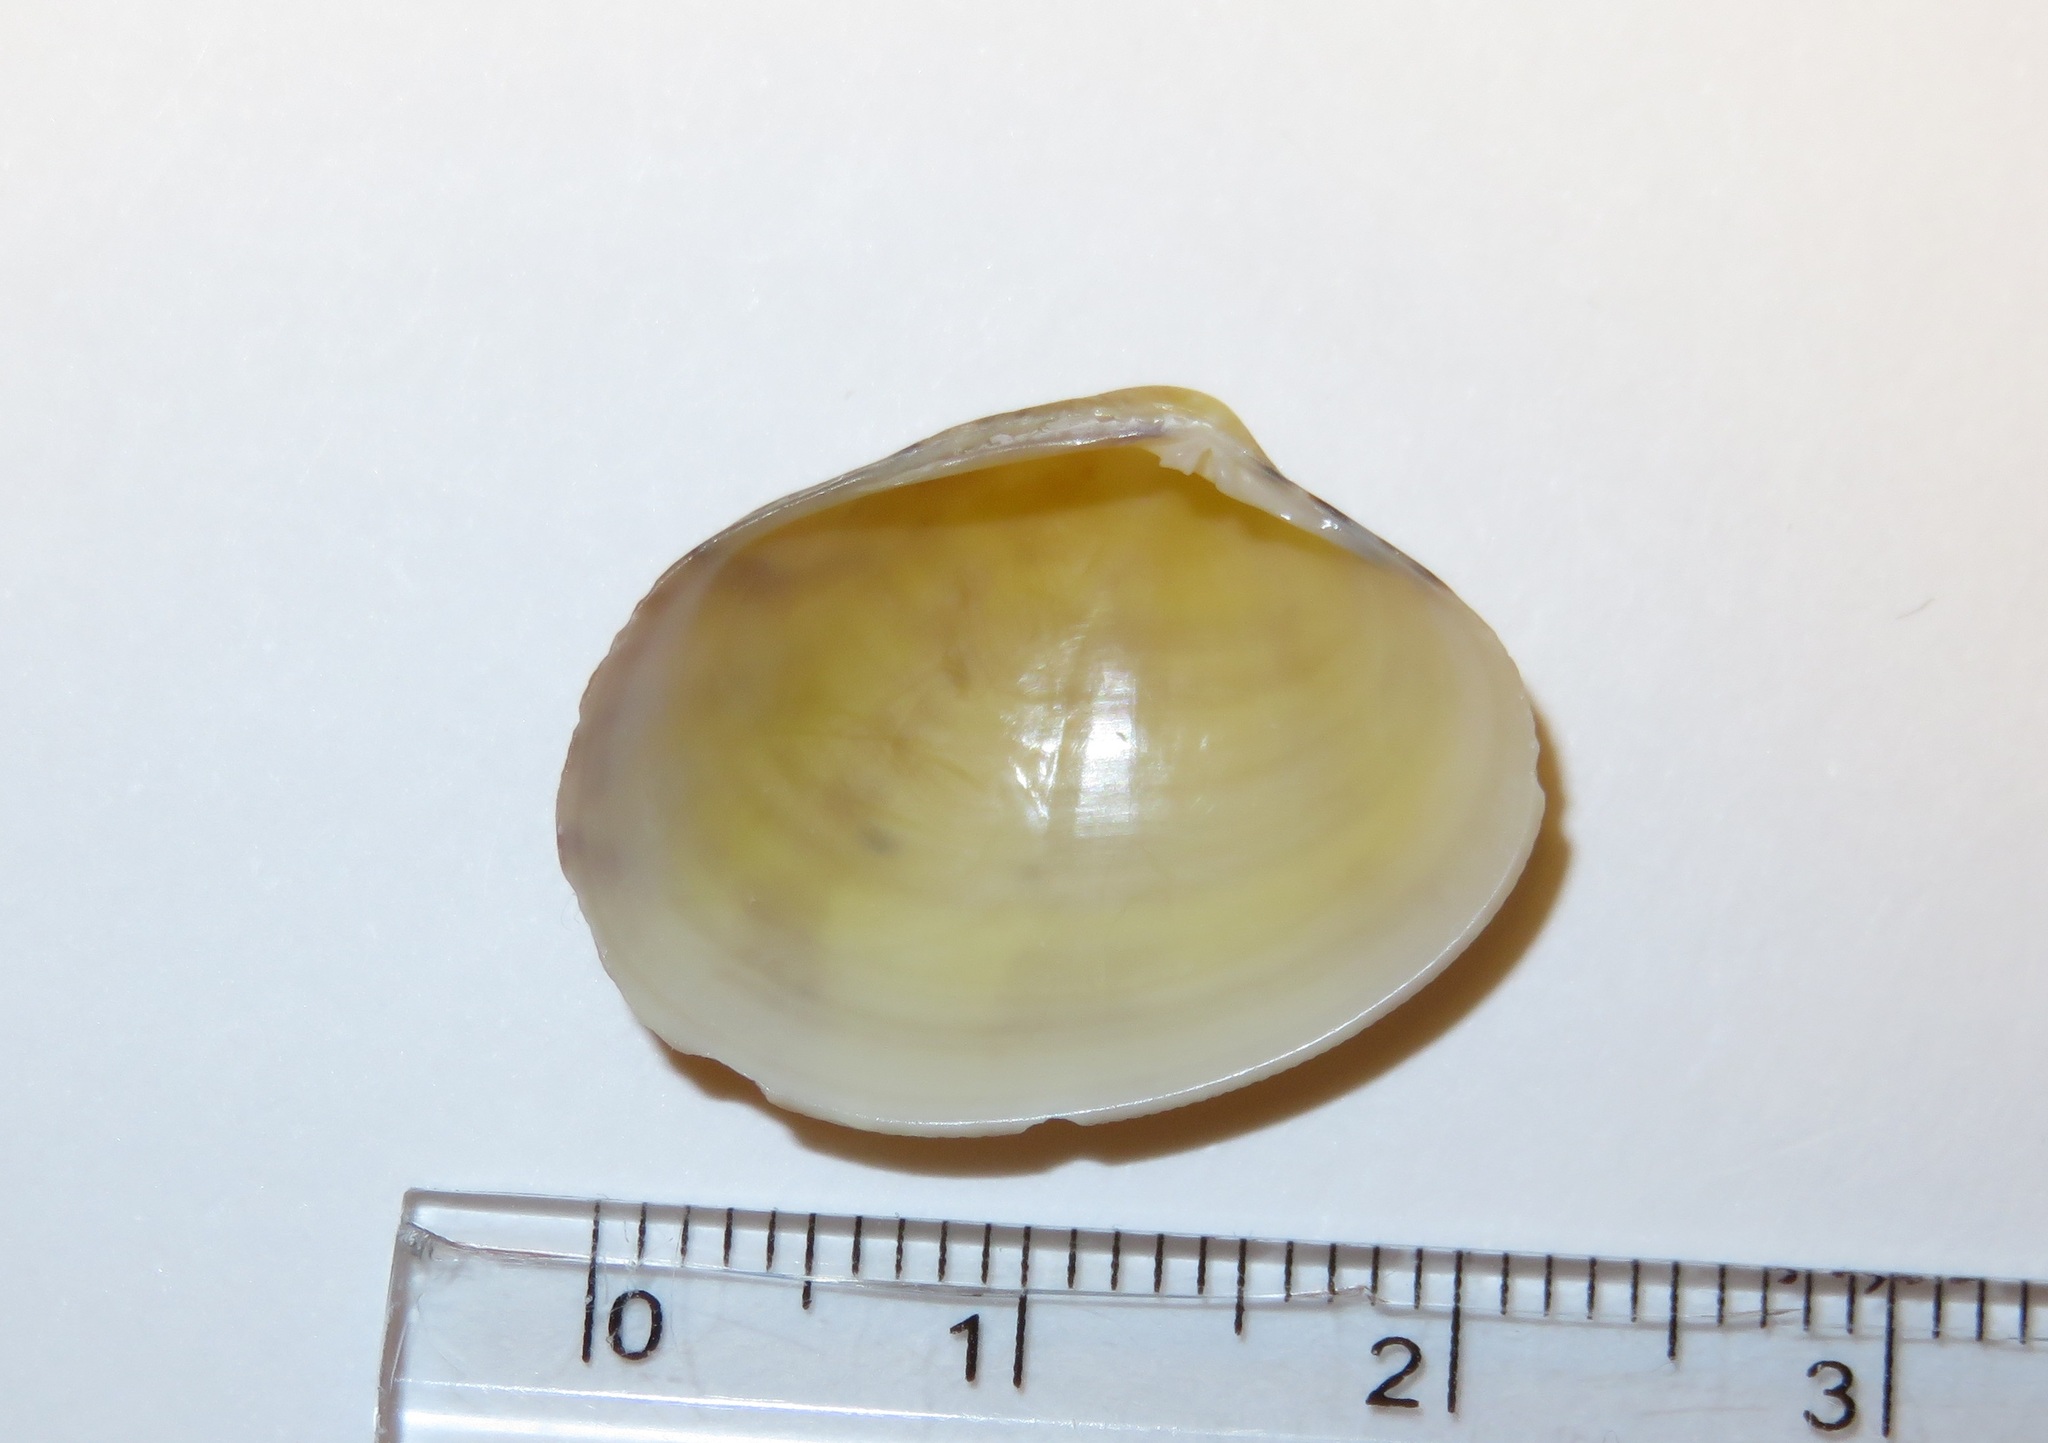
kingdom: Animalia
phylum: Mollusca
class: Bivalvia
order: Venerida
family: Veneridae
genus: Ruditapes
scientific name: Ruditapes philippinarum
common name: Manila clam
